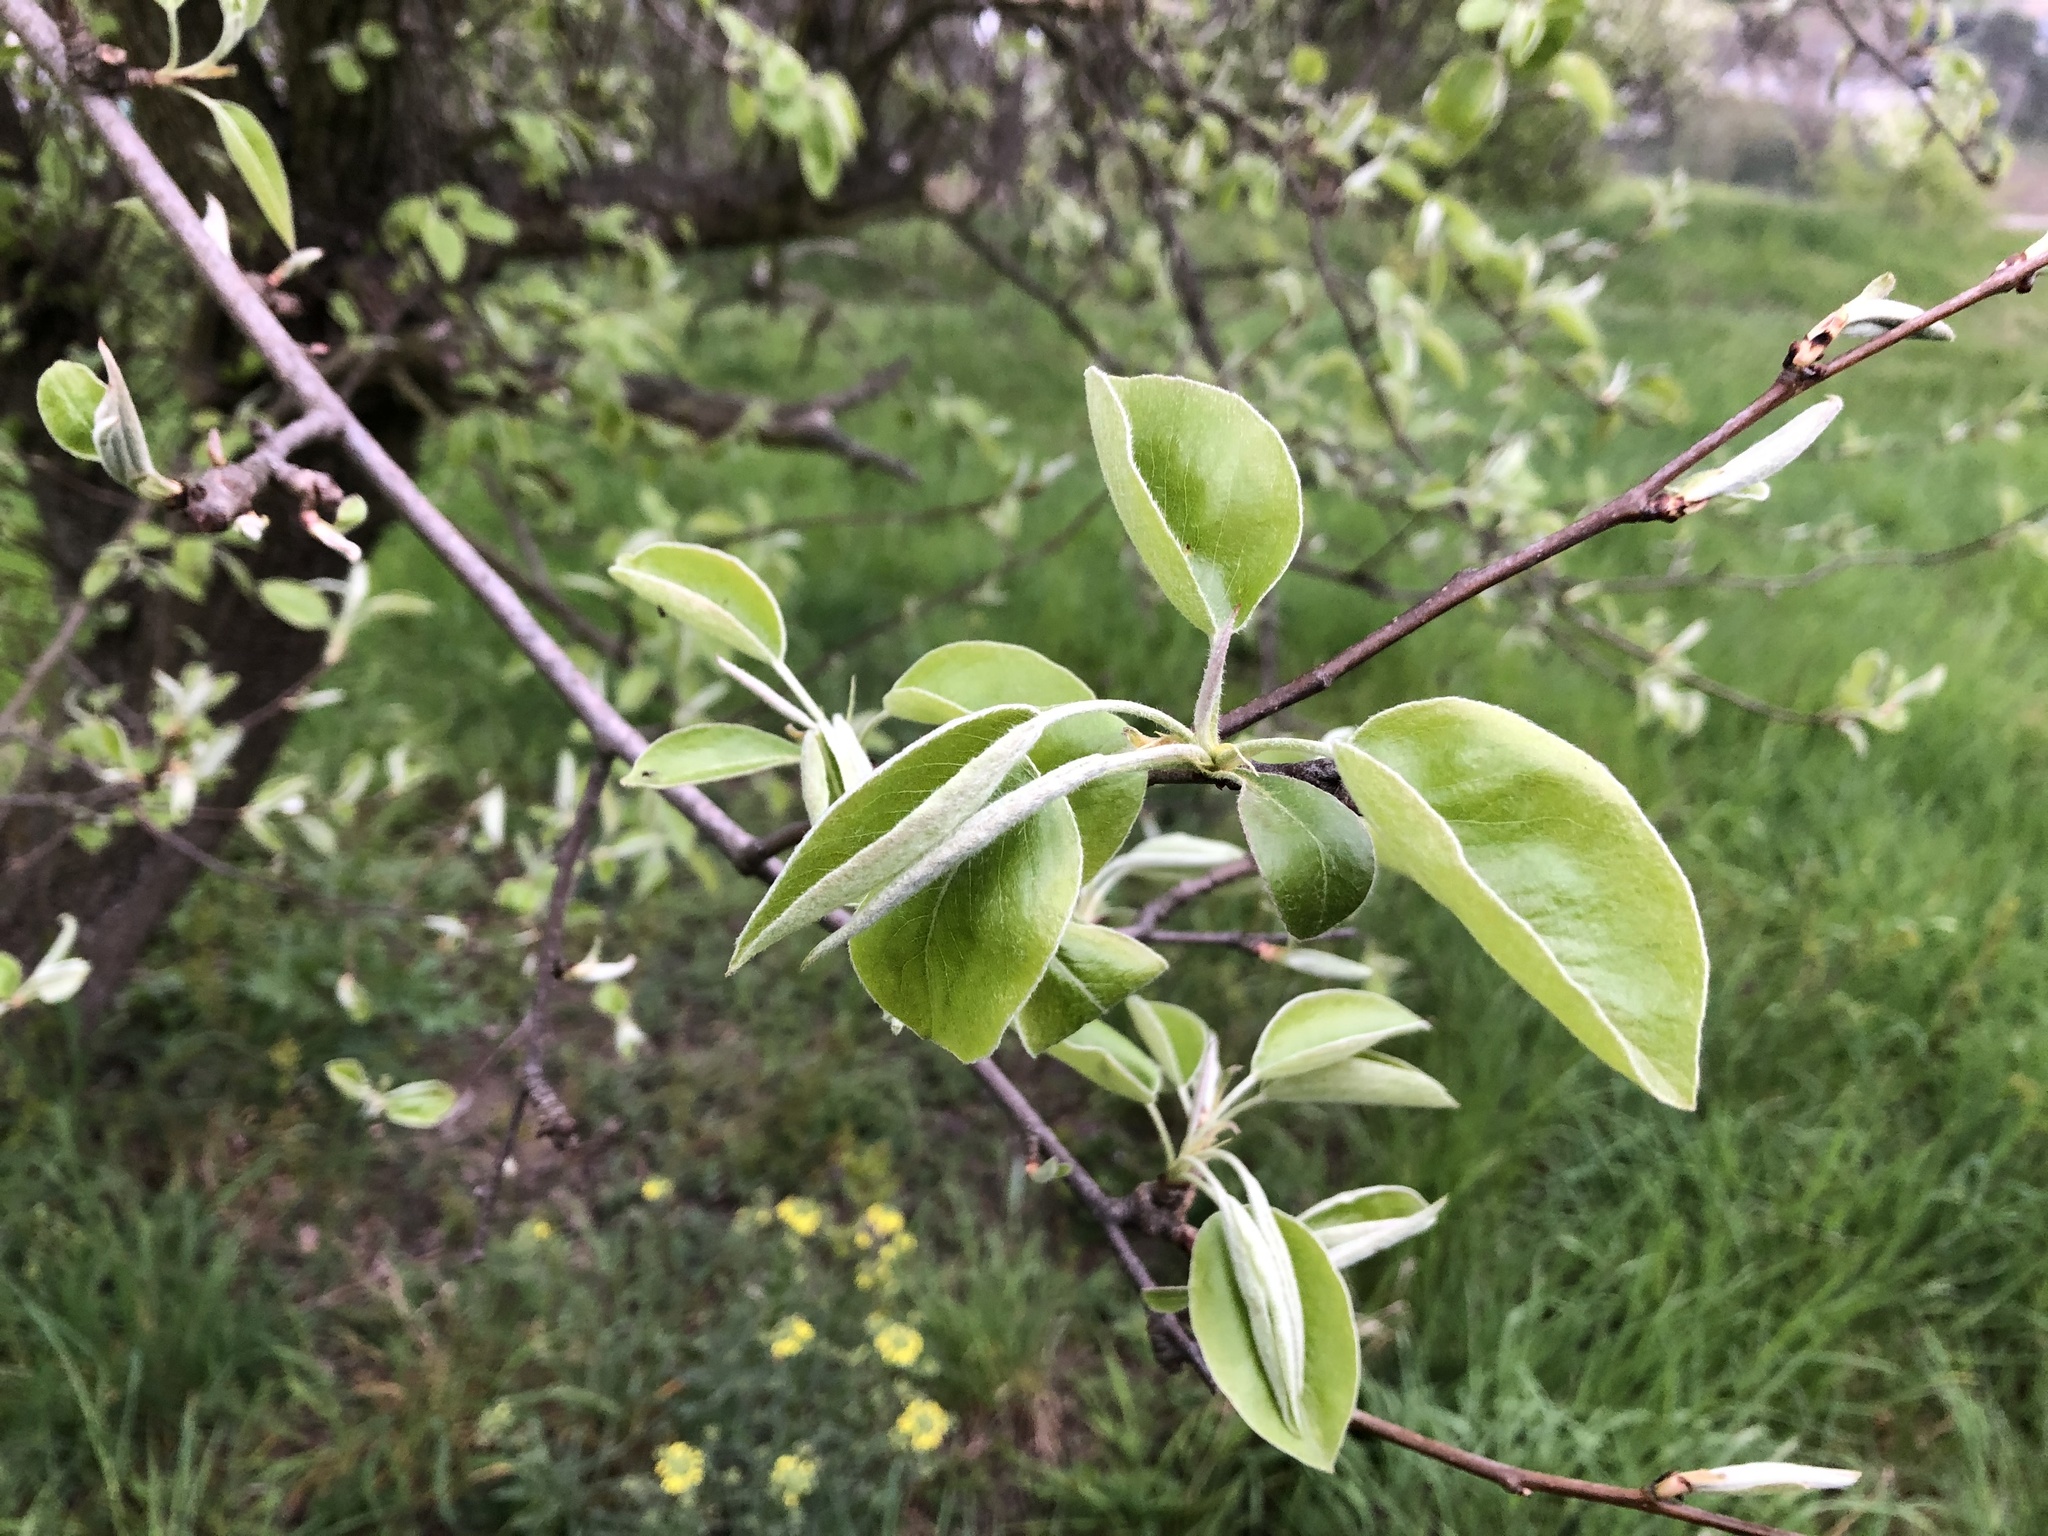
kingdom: Plantae
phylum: Tracheophyta
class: Magnoliopsida
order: Rosales
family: Rosaceae
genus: Pyrus
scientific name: Pyrus communis
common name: Pear
